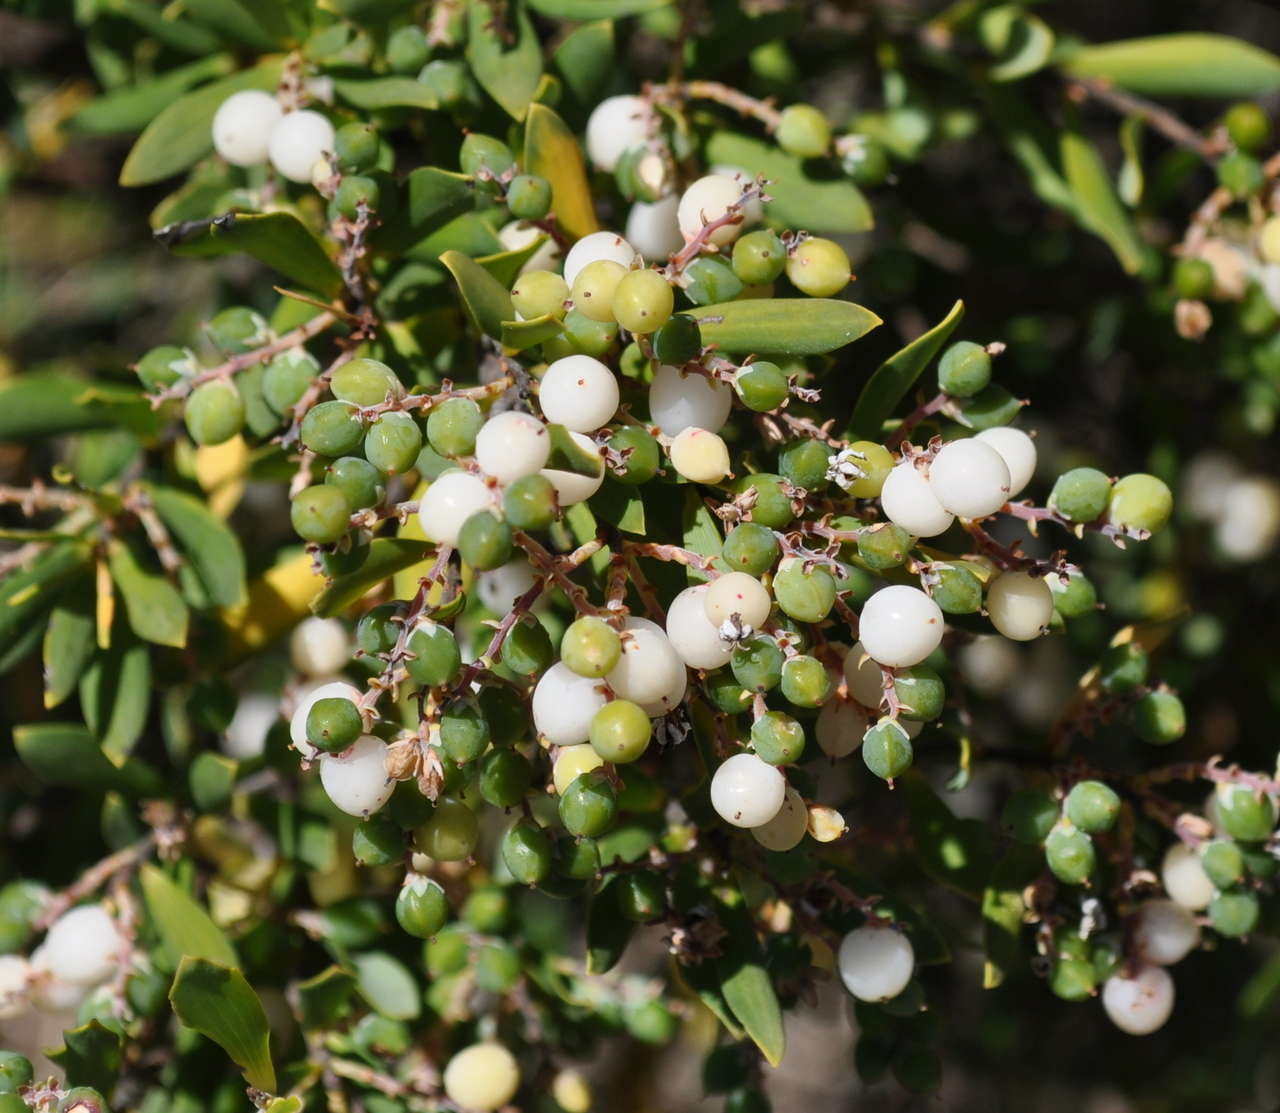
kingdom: Plantae
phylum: Tracheophyta
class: Magnoliopsida
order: Ericales
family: Ericaceae
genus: Leptecophylla
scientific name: Leptecophylla parvifolia
